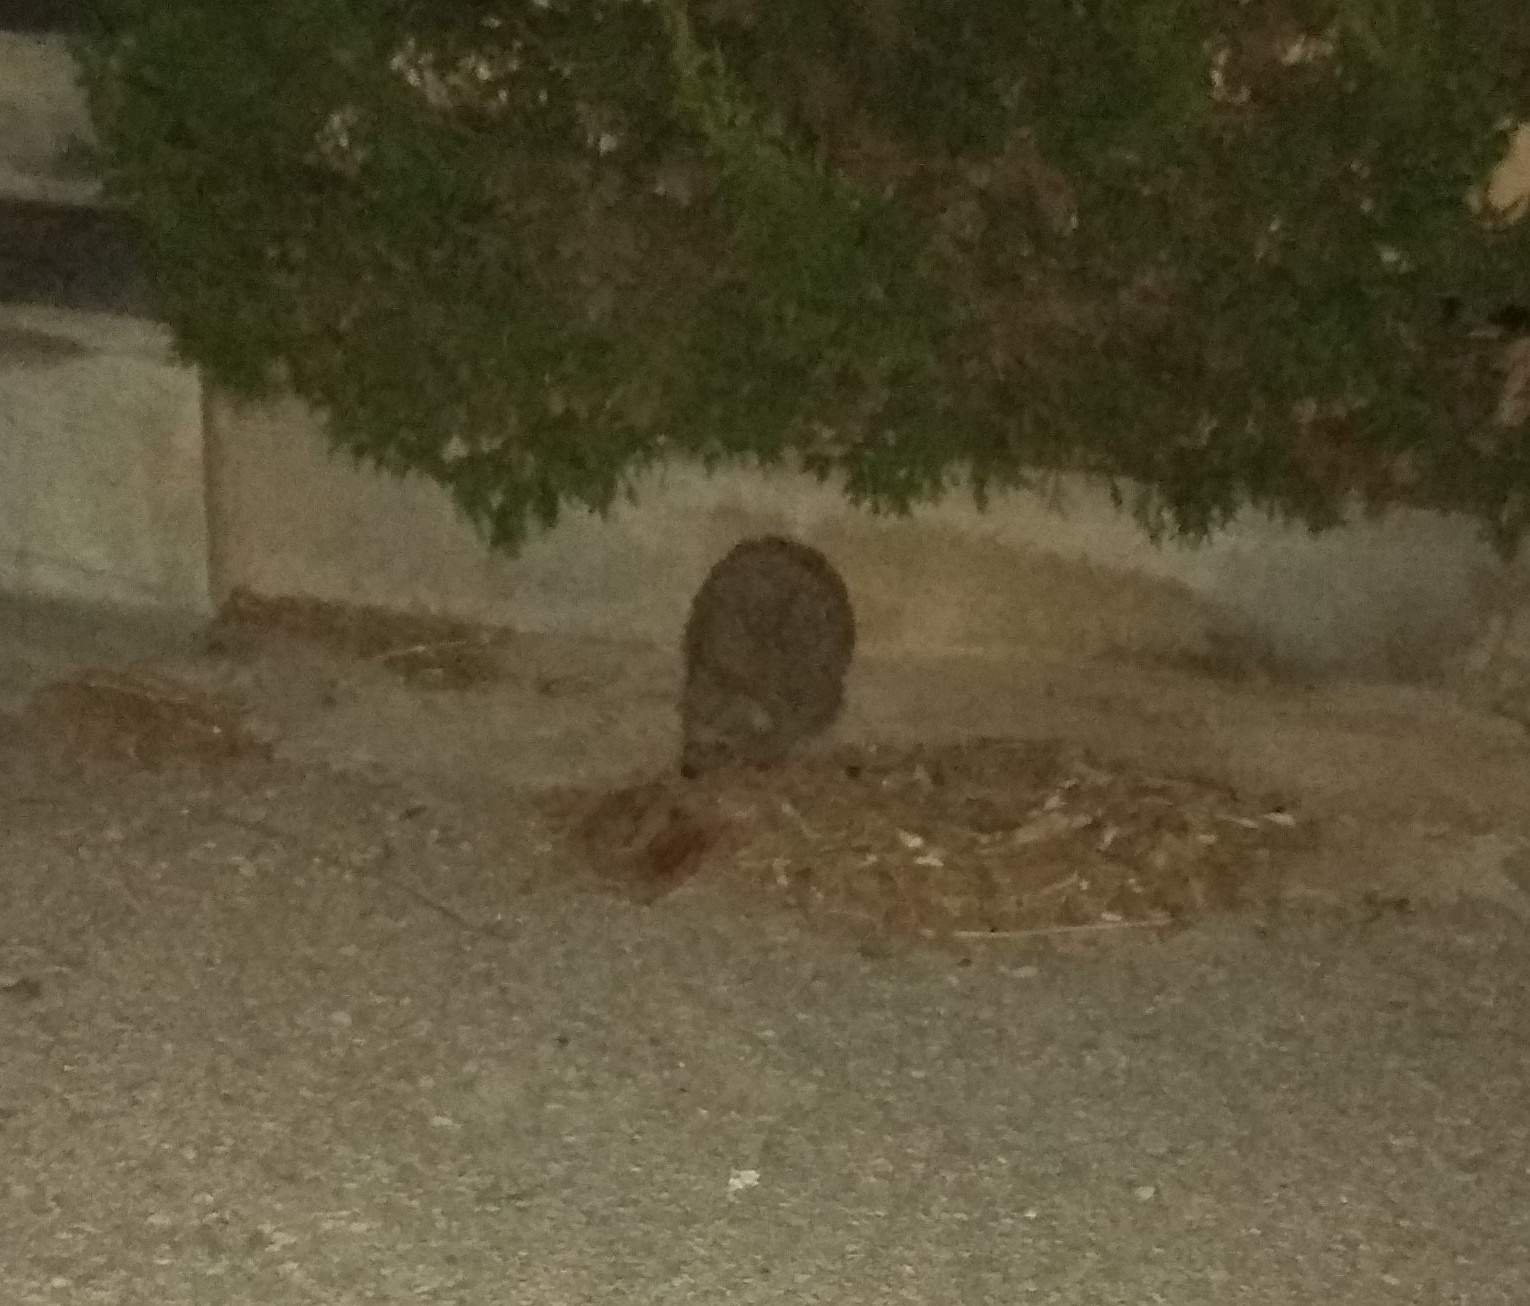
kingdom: Animalia
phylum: Chordata
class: Mammalia
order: Erinaceomorpha
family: Erinaceidae
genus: Erinaceus
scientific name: Erinaceus roumanicus
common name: Northern white-breasted hedgehog
